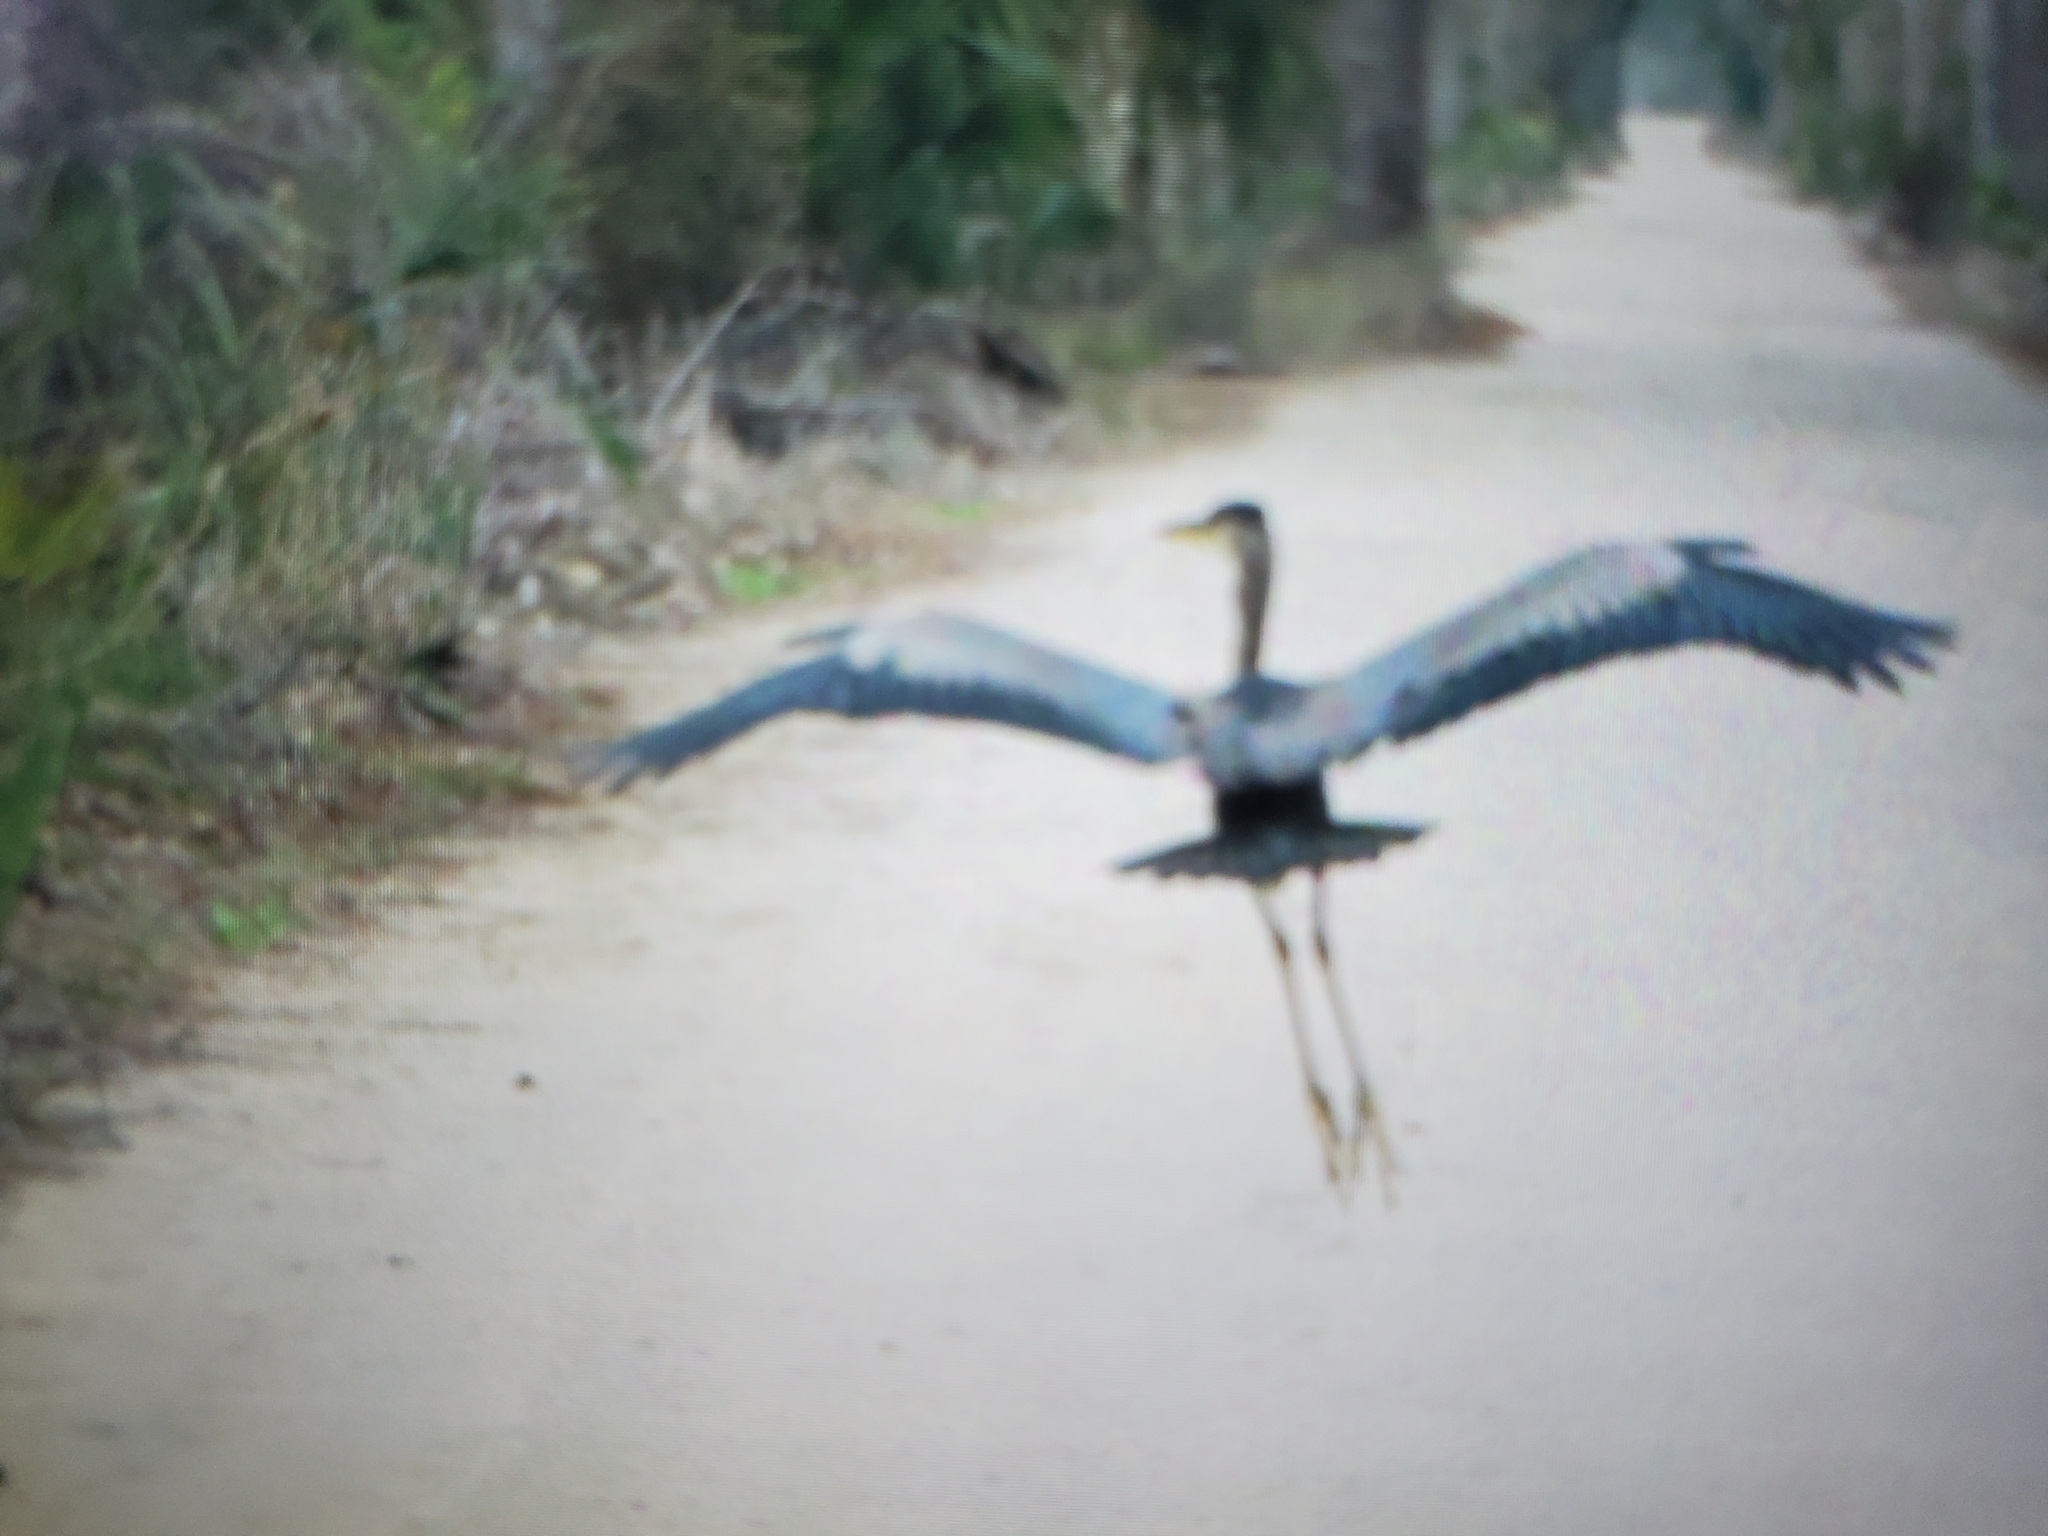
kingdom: Animalia
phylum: Chordata
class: Aves
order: Pelecaniformes
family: Ardeidae
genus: Ardea
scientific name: Ardea herodias
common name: Great blue heron
